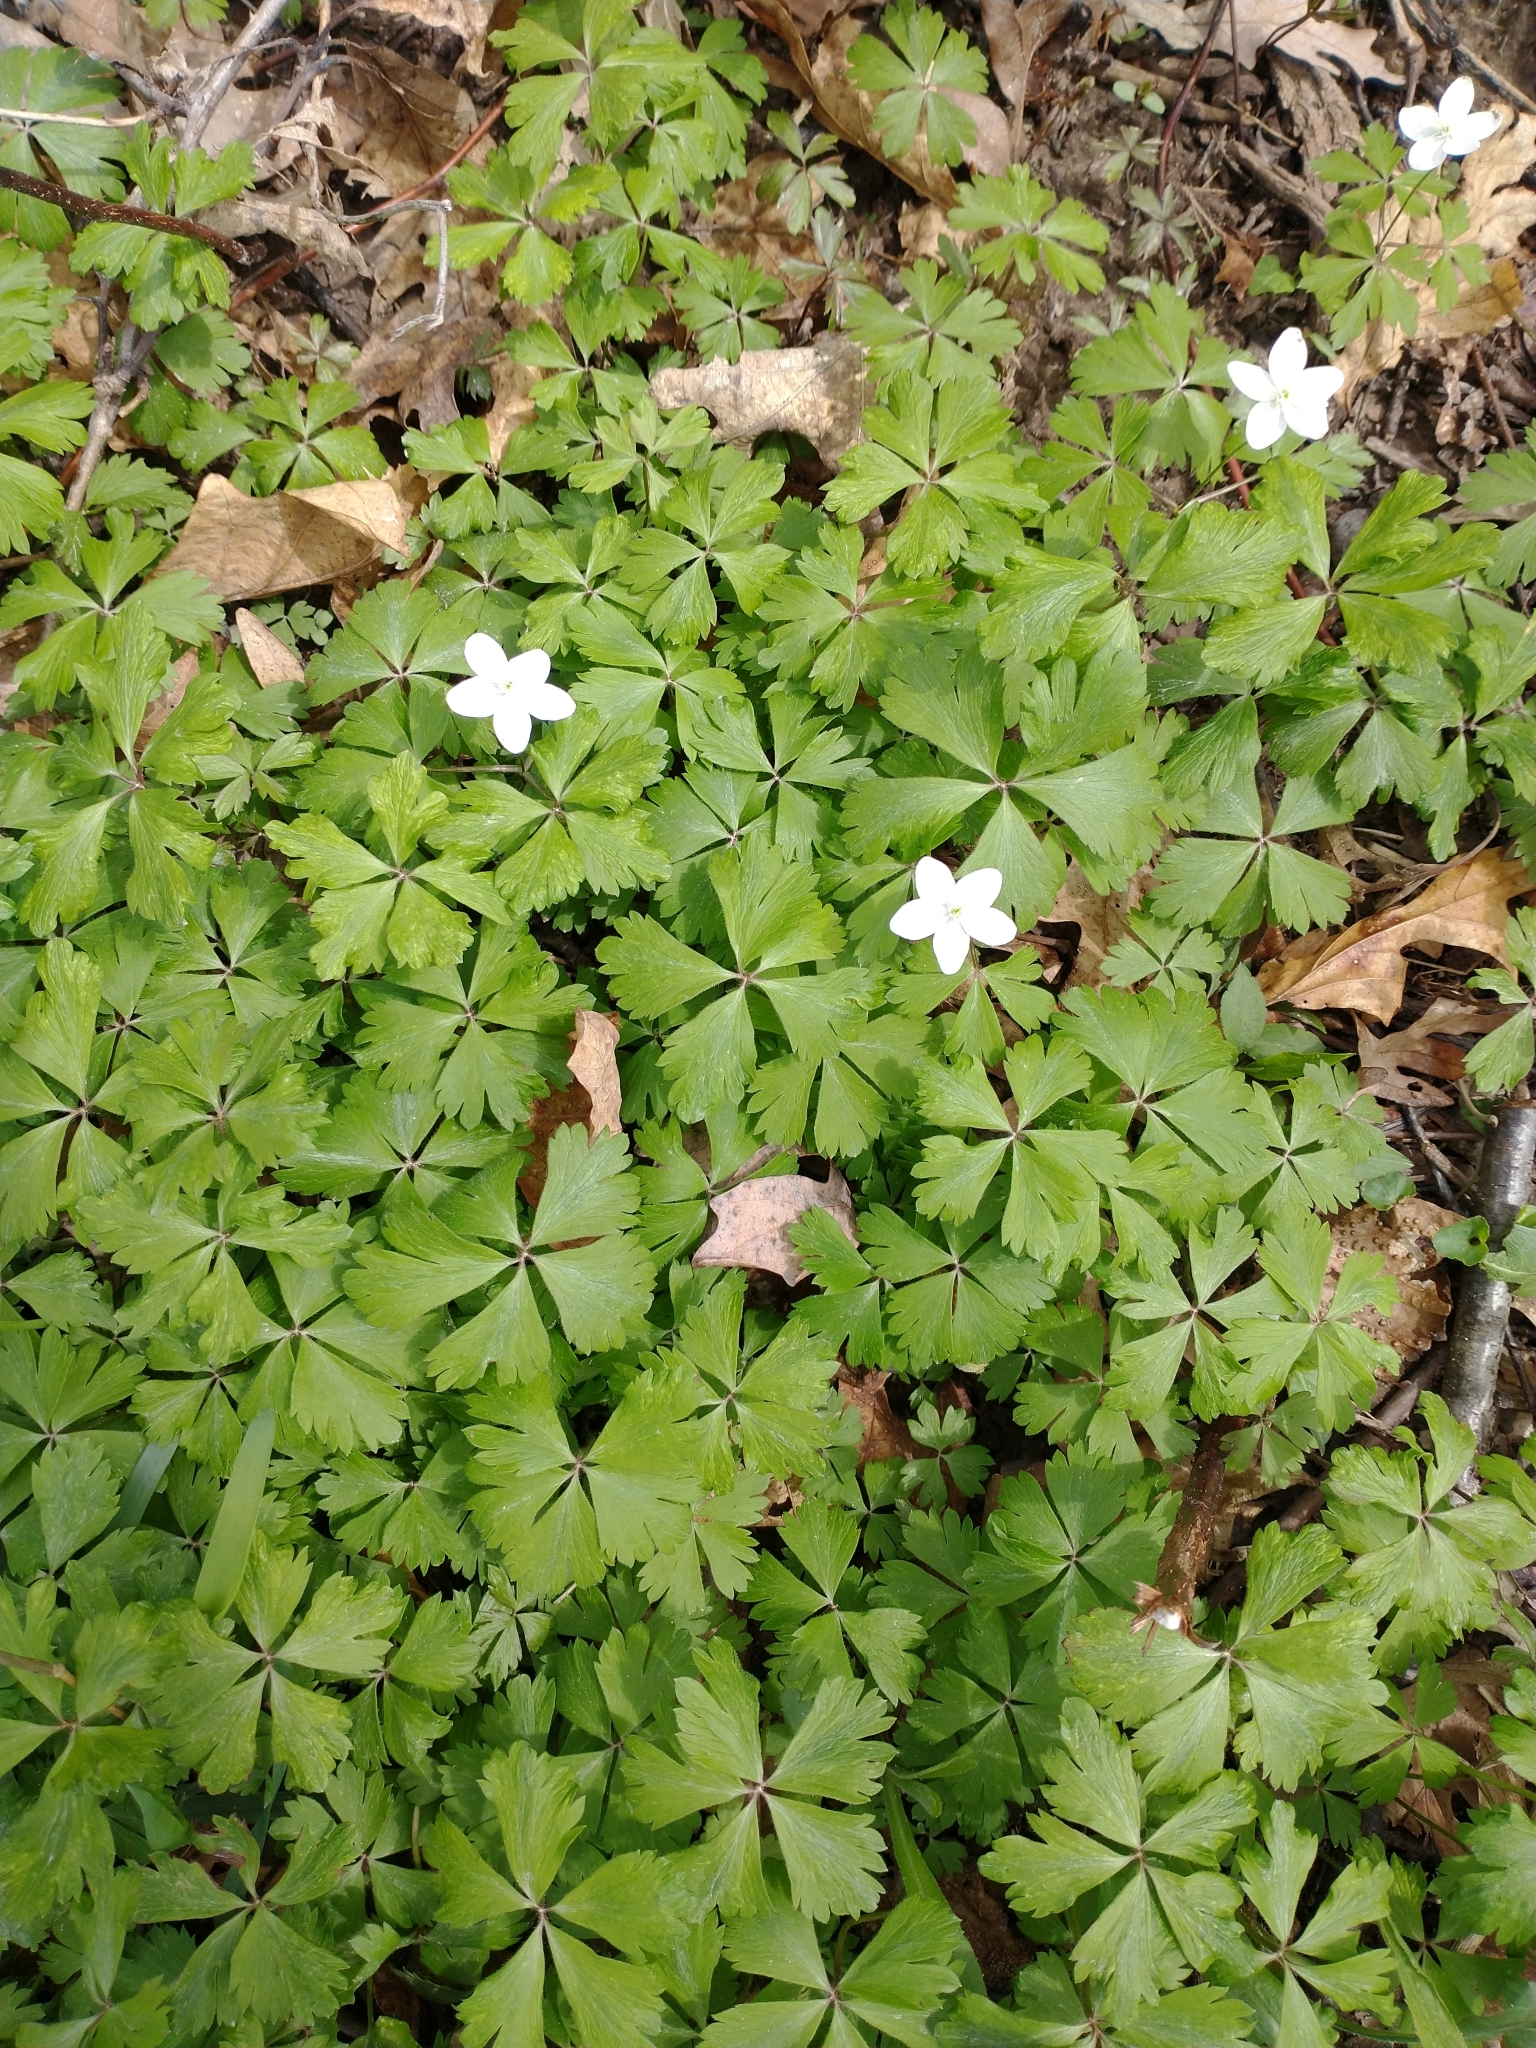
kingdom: Plantae
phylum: Tracheophyta
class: Magnoliopsida
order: Ranunculales
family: Ranunculaceae
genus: Anemone
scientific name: Anemone quinquefolia
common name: Wood anemone
